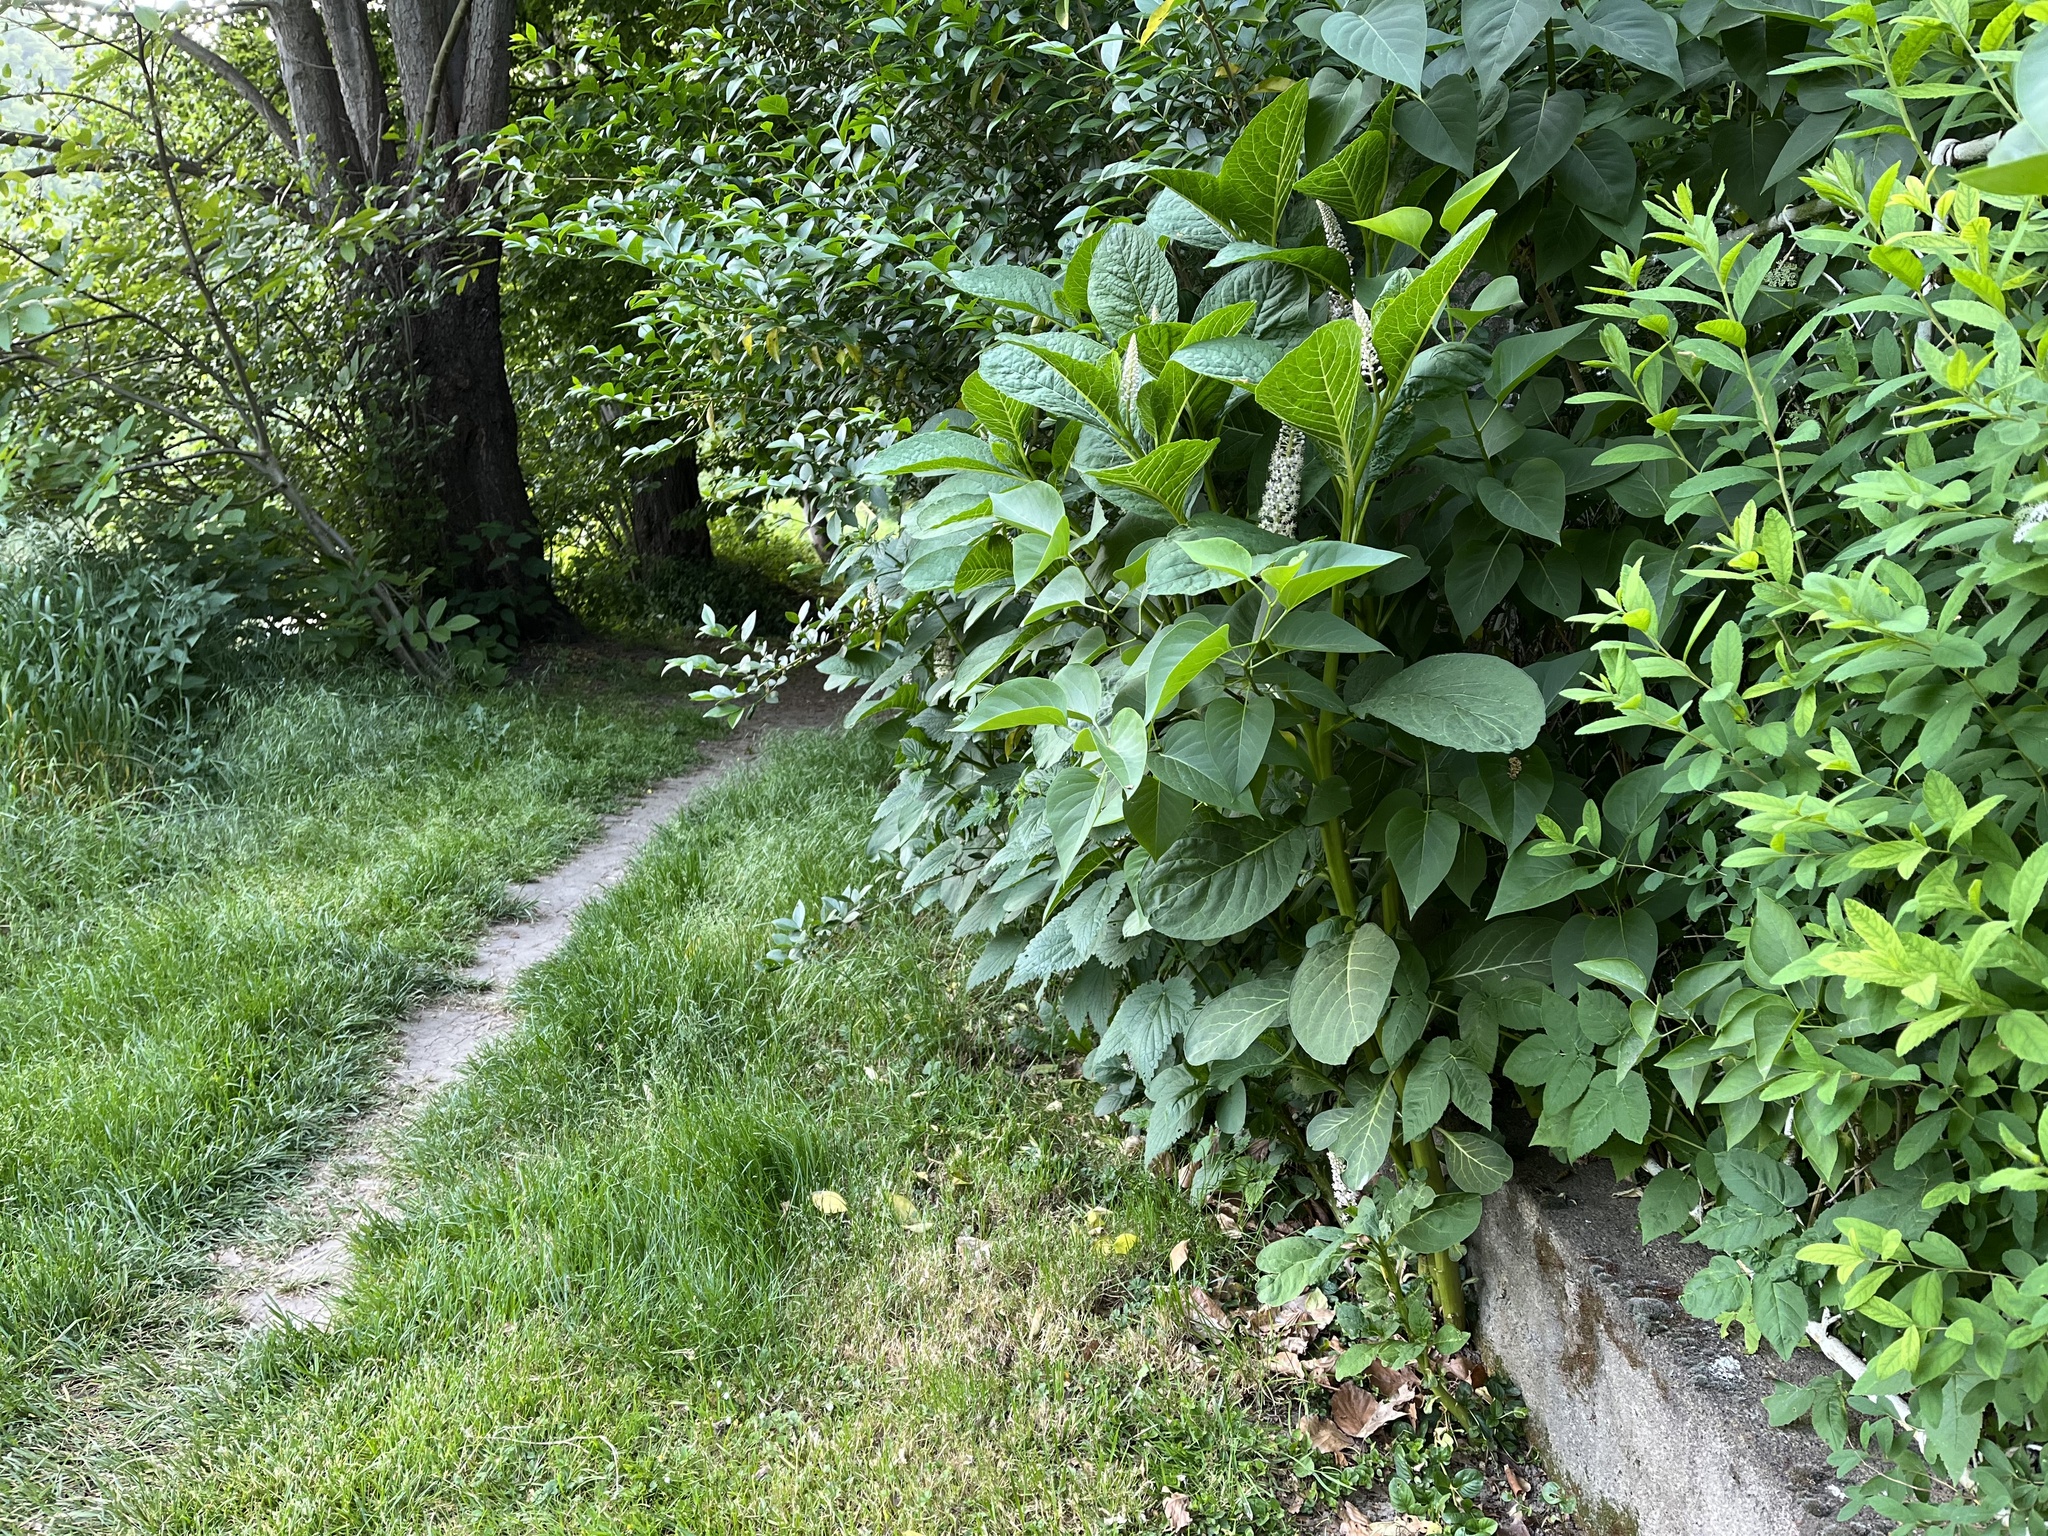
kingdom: Plantae
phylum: Tracheophyta
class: Magnoliopsida
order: Caryophyllales
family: Phytolaccaceae
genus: Phytolacca
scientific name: Phytolacca acinosa
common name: Indian pokeweed
